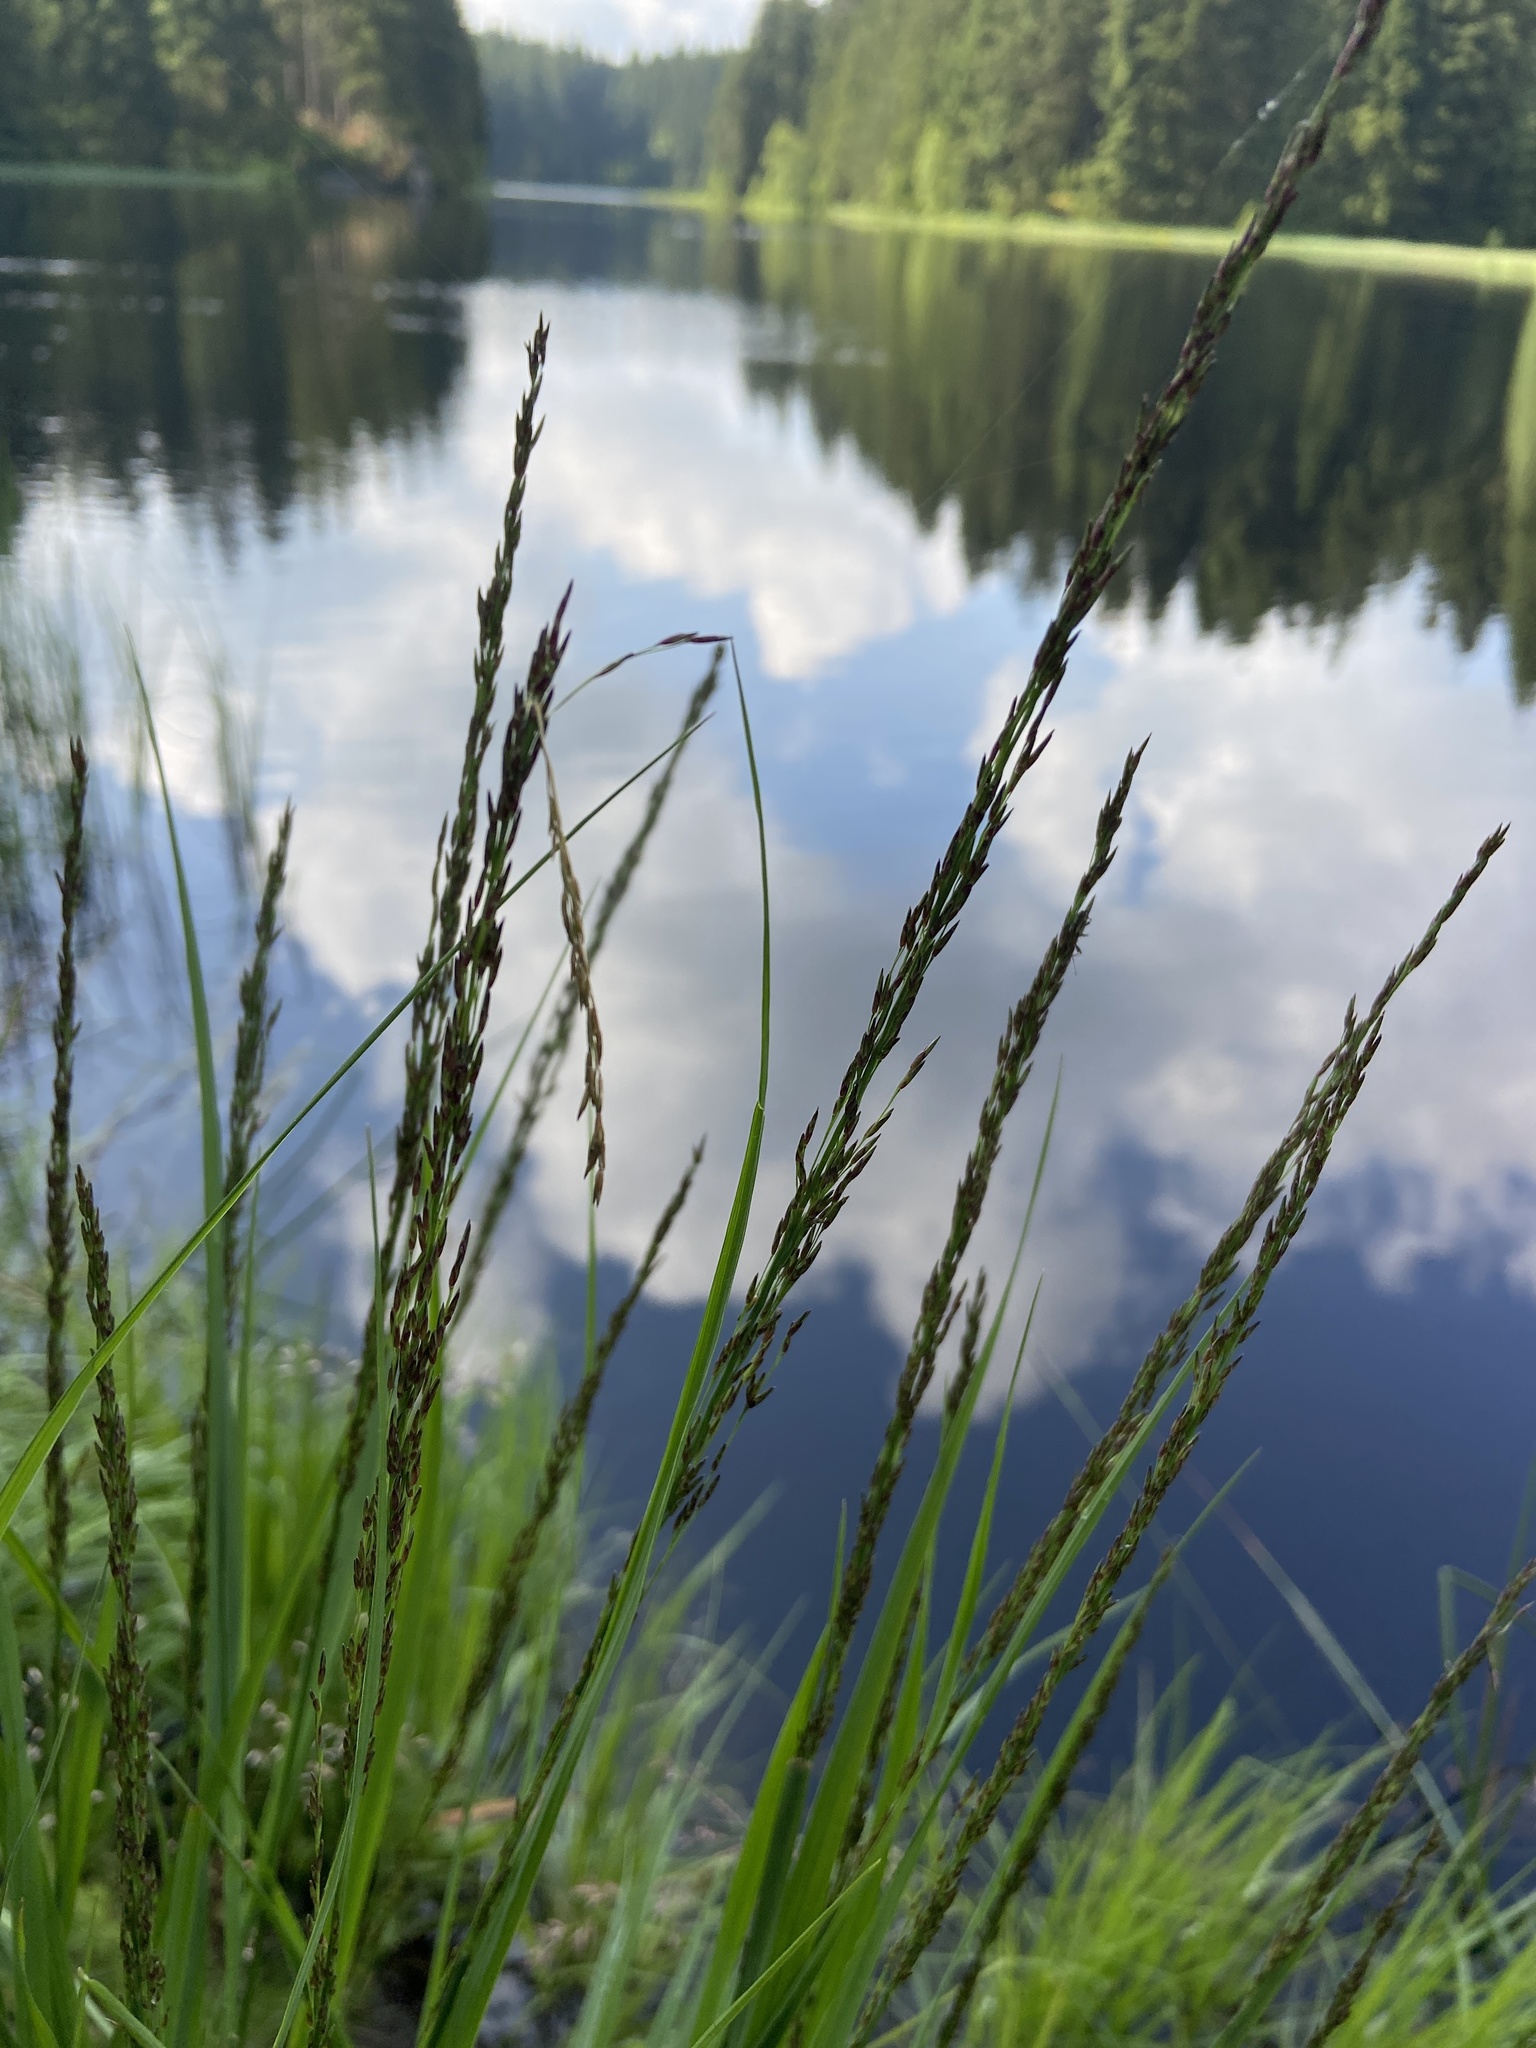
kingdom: Plantae
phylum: Tracheophyta
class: Liliopsida
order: Poales
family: Poaceae
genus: Molinia
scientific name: Molinia caerulea
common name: Purple moor-grass
